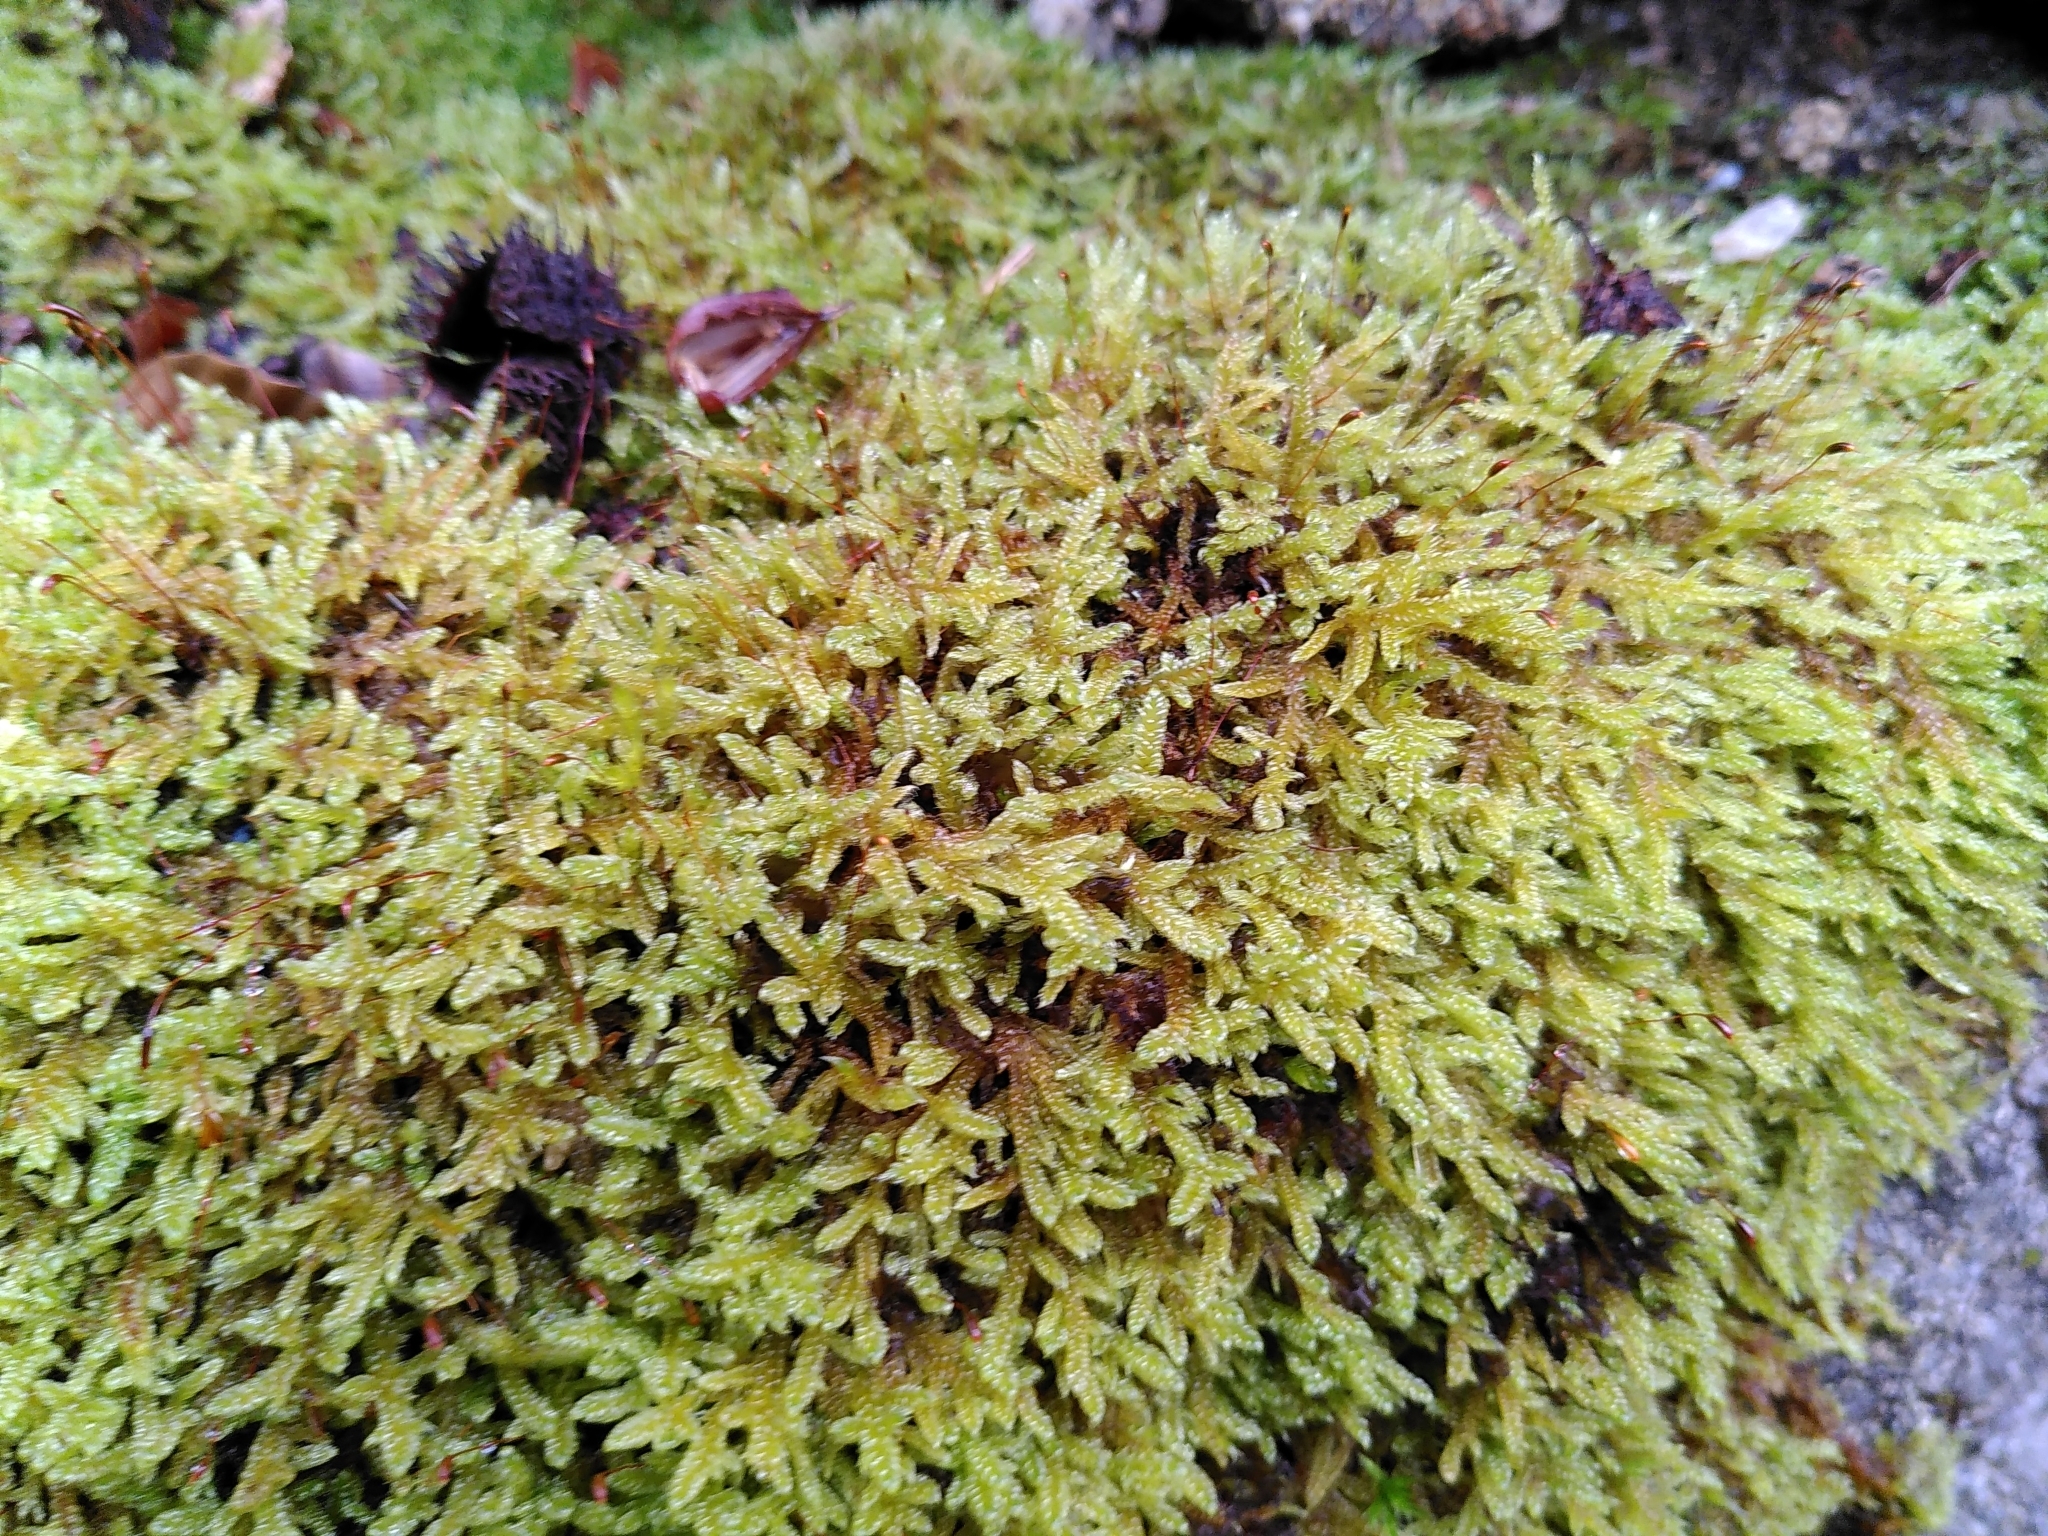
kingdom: Plantae
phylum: Bryophyta
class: Bryopsida
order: Hypnales
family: Hypnaceae
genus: Hypnum
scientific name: Hypnum cupressiforme
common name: Cypress-leaved plait-moss
